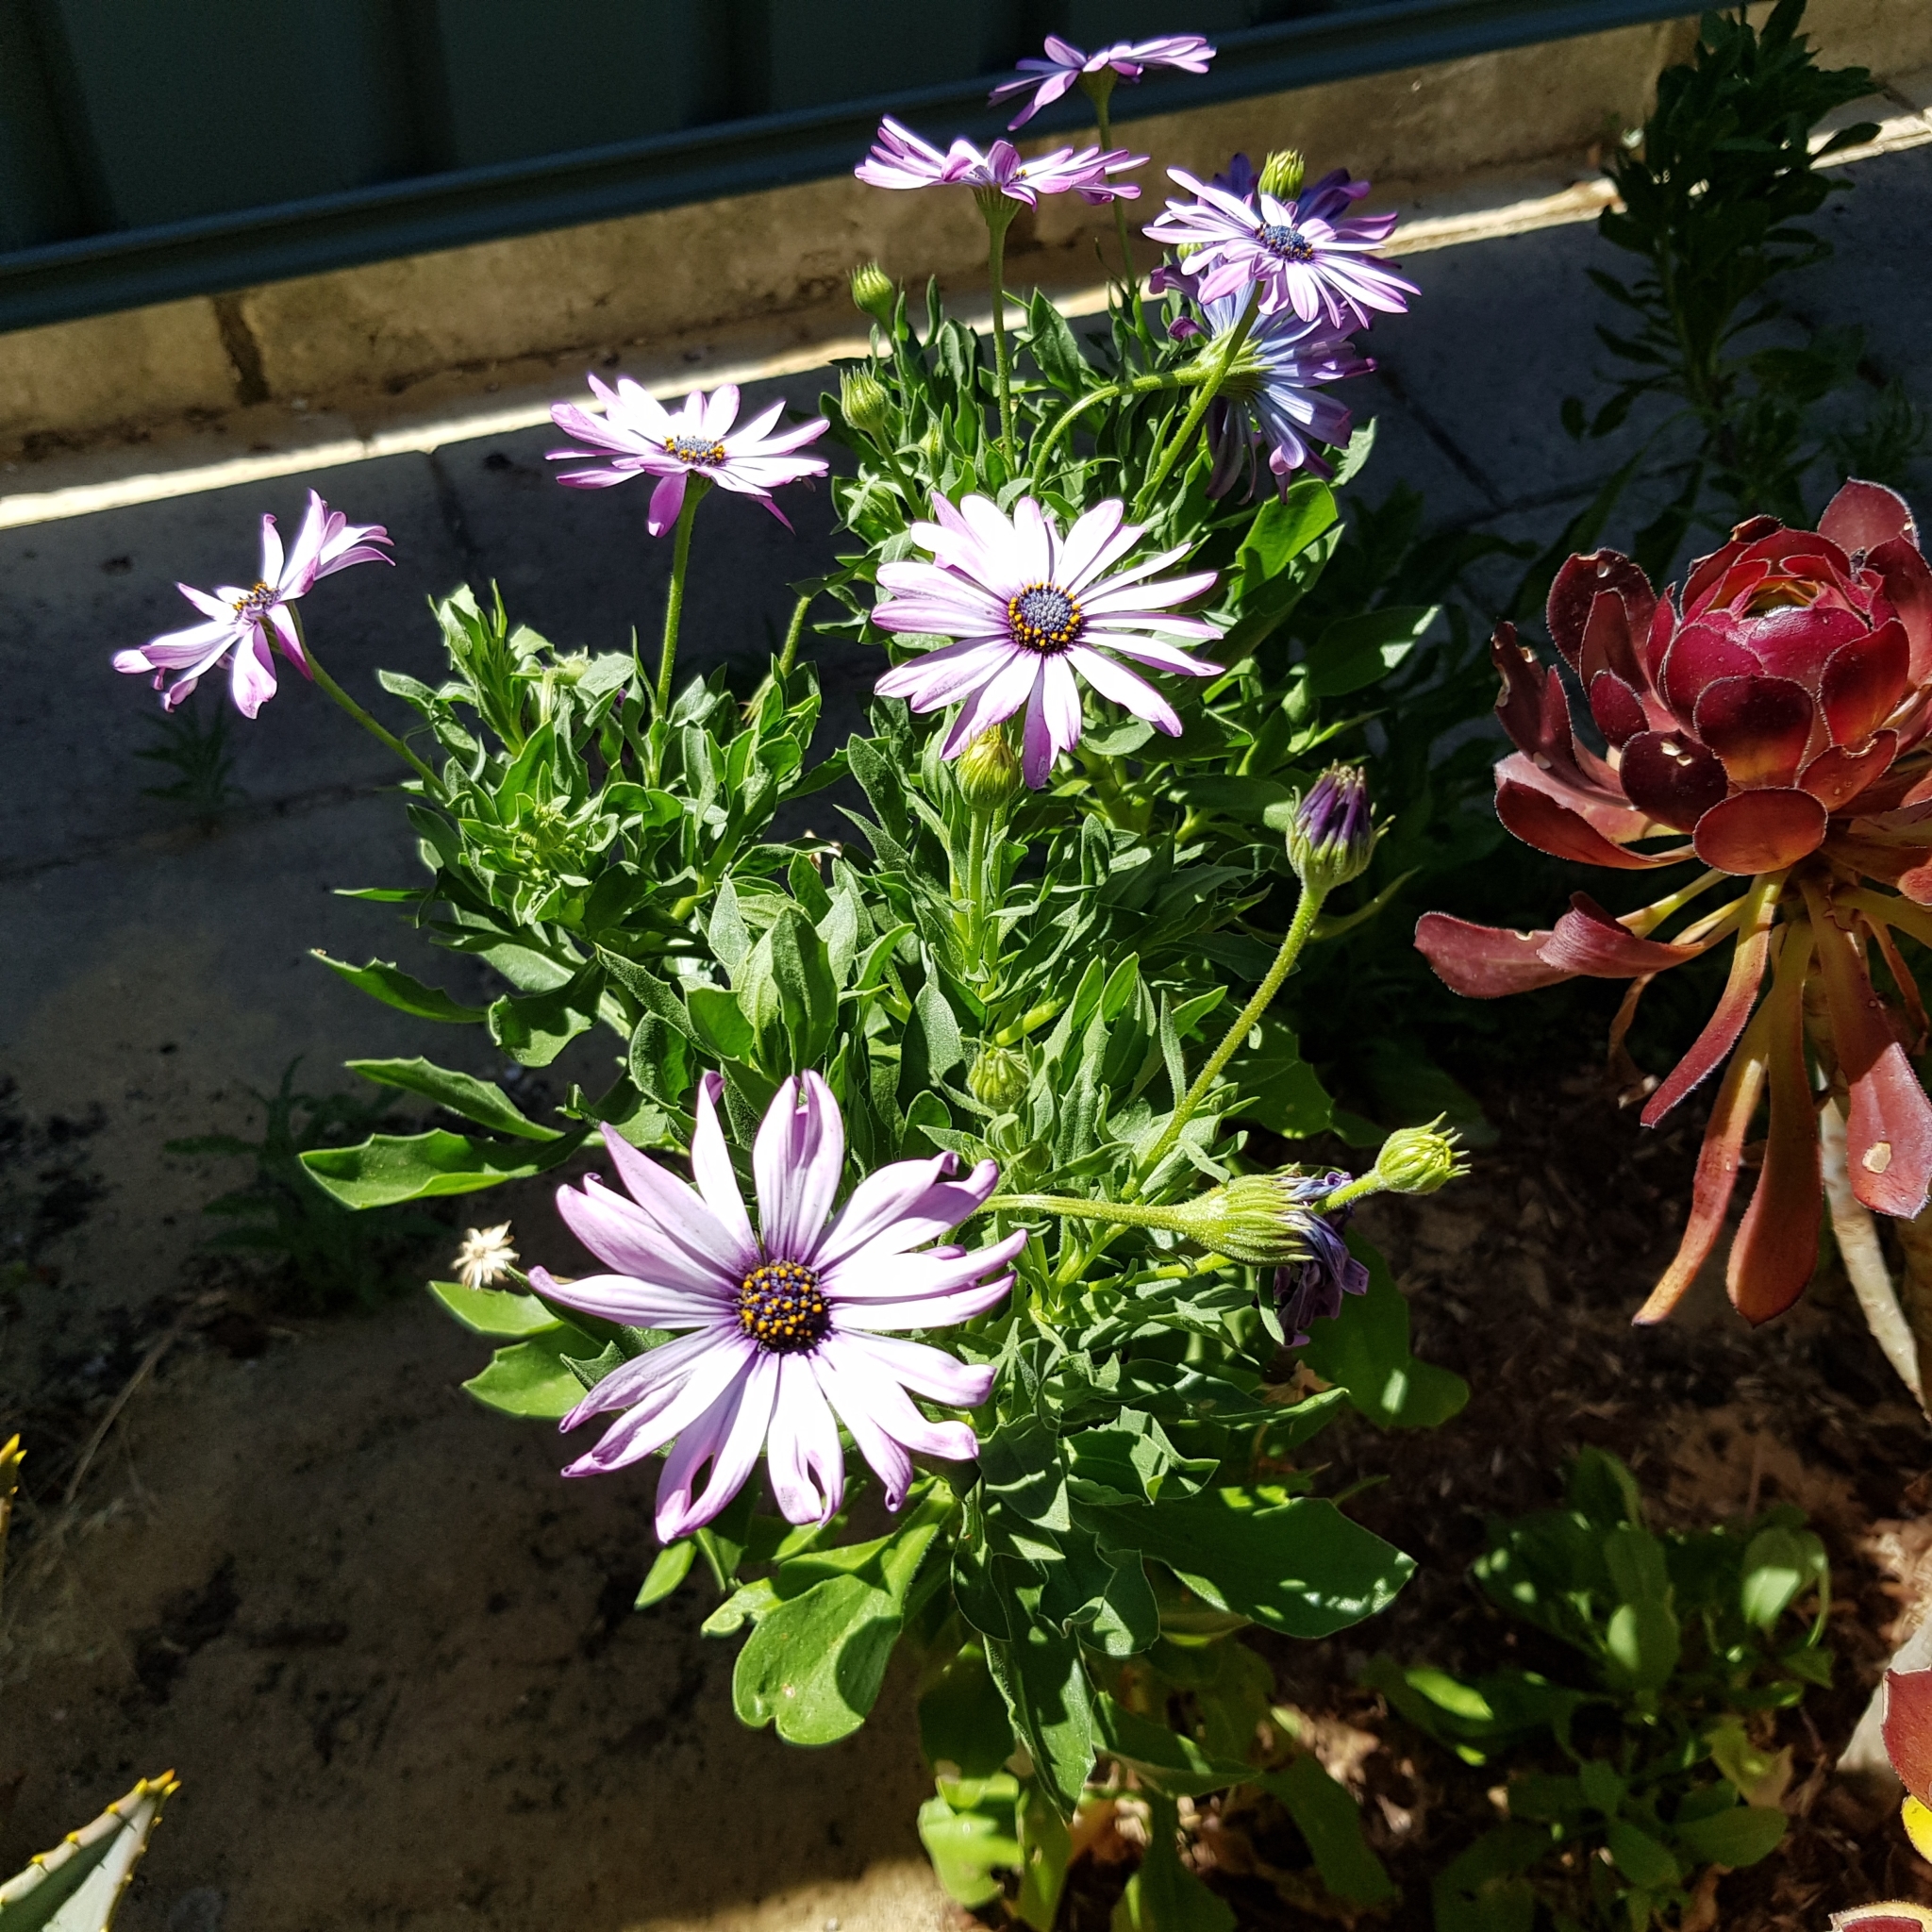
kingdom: Plantae
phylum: Tracheophyta
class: Magnoliopsida
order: Asterales
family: Asteraceae
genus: Dimorphotheca
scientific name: Dimorphotheca ecklonis
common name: Vanstaden's river daisy
